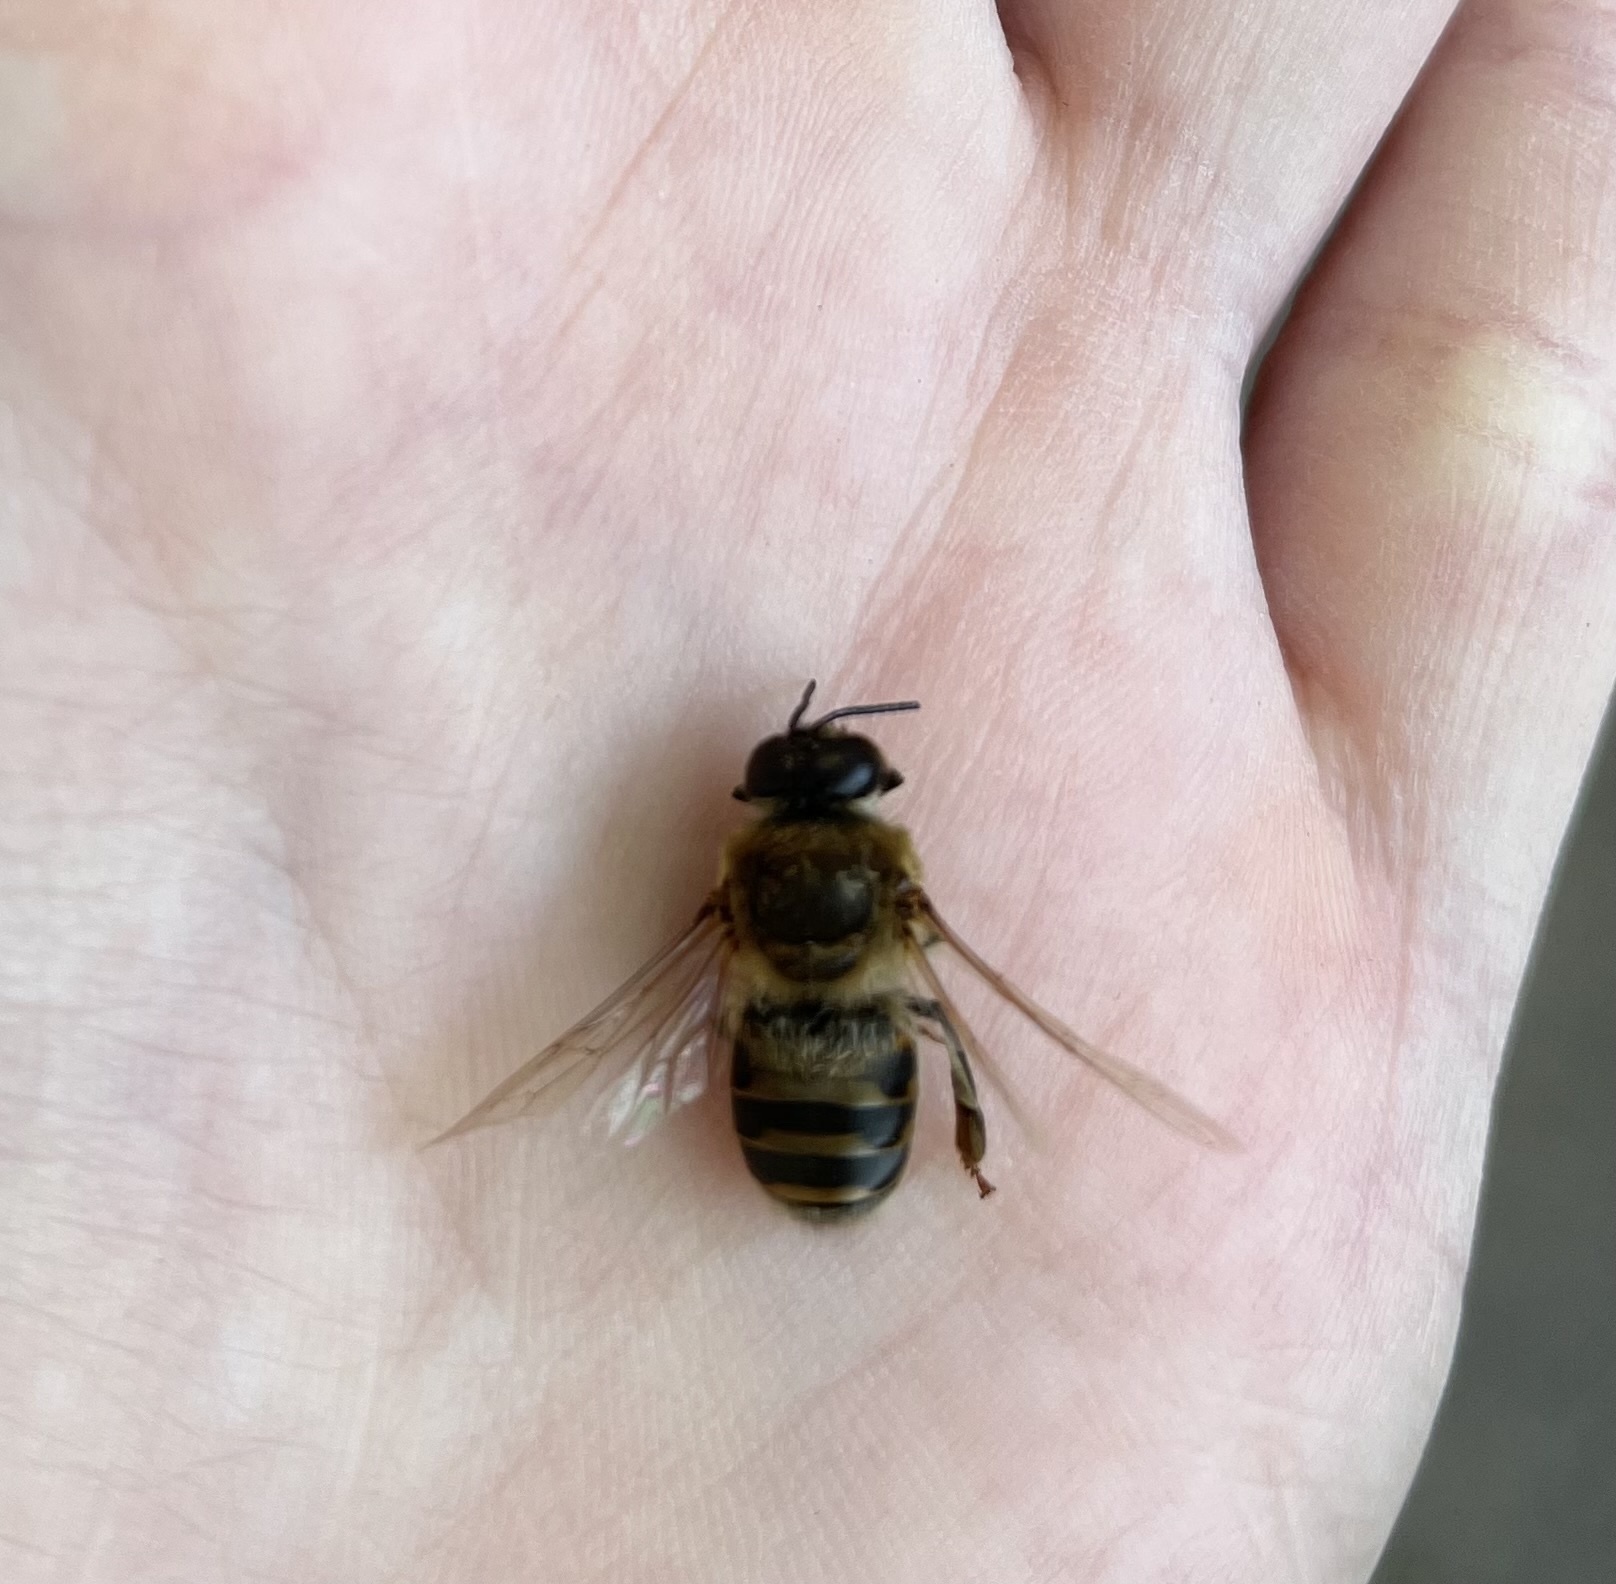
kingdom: Animalia
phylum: Arthropoda
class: Insecta
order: Hymenoptera
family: Apidae
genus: Apis
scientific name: Apis mellifera
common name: Honey bee
